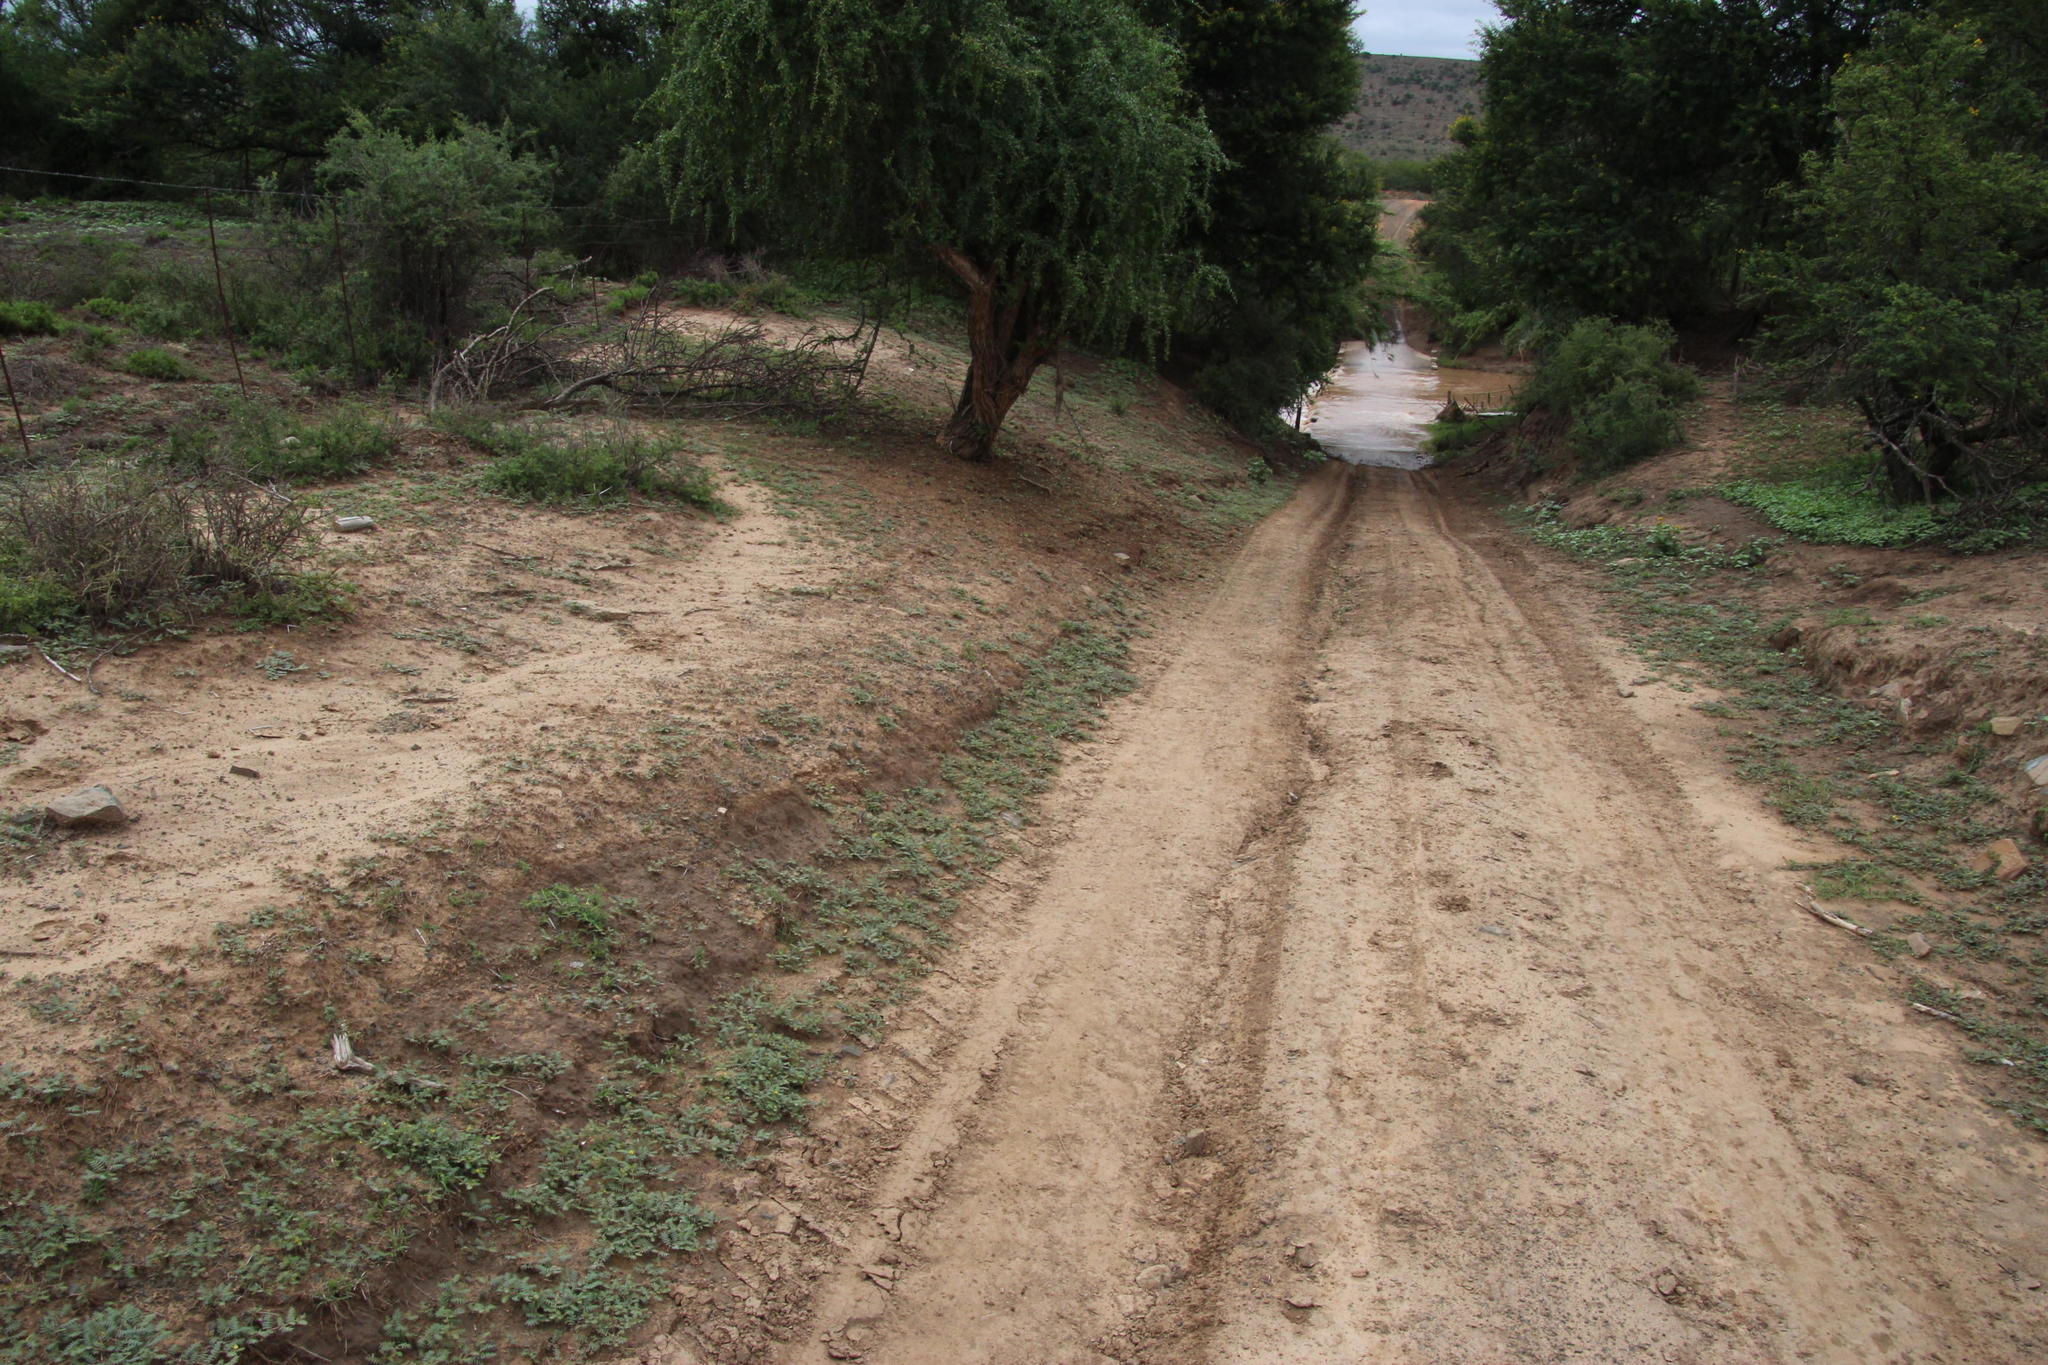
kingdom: Plantae
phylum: Tracheophyta
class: Magnoliopsida
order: Zygophyllales
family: Zygophyllaceae
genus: Tribulus
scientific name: Tribulus terrestris
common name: Puncturevine
